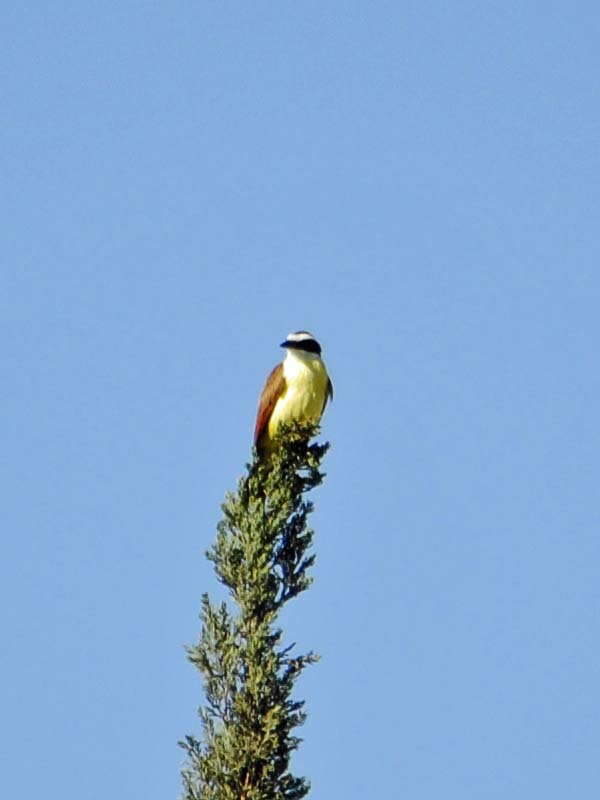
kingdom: Animalia
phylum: Chordata
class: Aves
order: Passeriformes
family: Tyrannidae
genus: Pitangus
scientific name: Pitangus sulphuratus
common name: Great kiskadee
